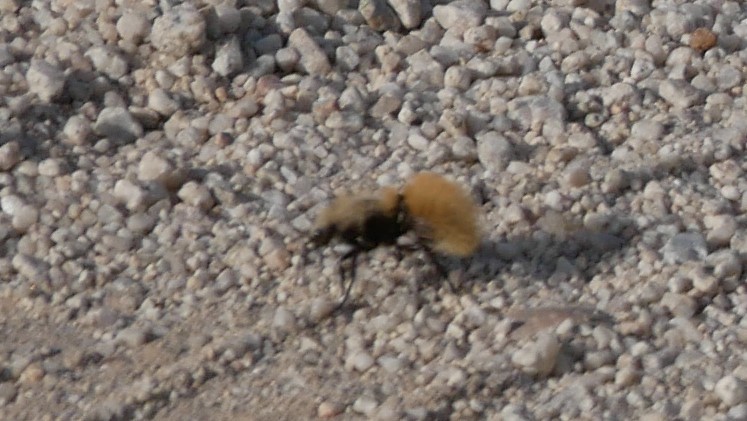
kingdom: Animalia
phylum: Arthropoda
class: Insecta
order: Hymenoptera
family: Mutillidae
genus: Dasymutilla
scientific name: Dasymutilla satanas
